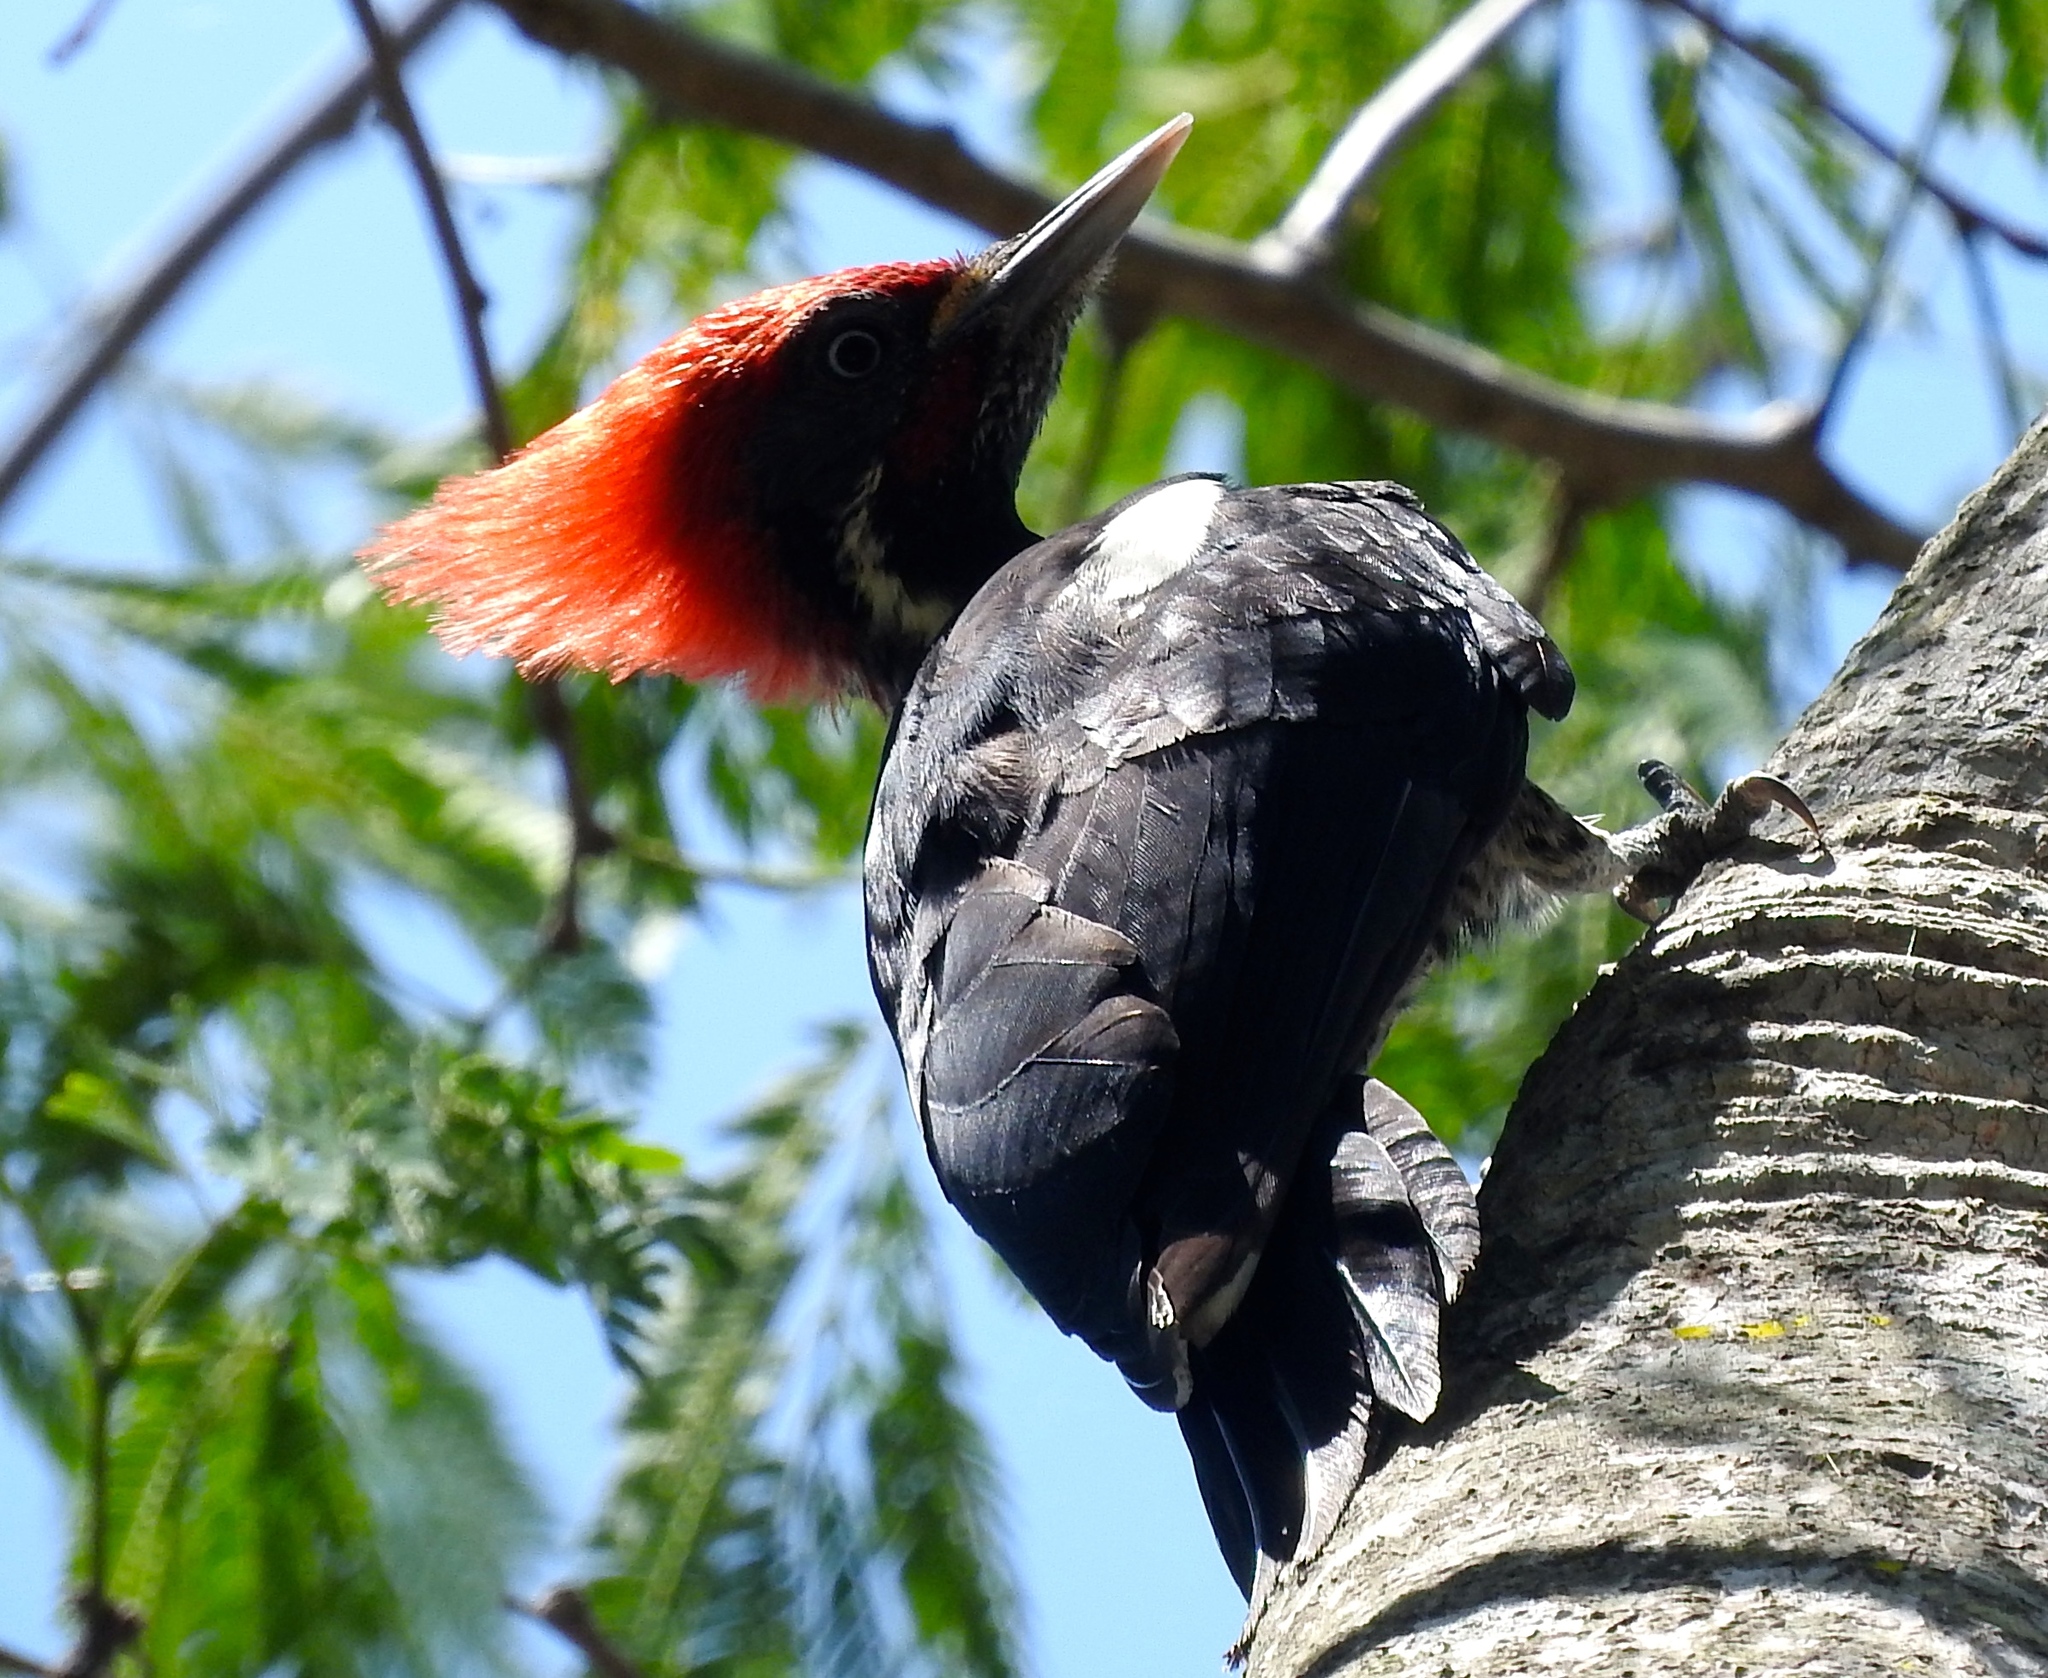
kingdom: Animalia
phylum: Chordata
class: Aves
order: Piciformes
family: Picidae
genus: Dryocopus
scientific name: Dryocopus lineatus
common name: Lineated woodpecker
